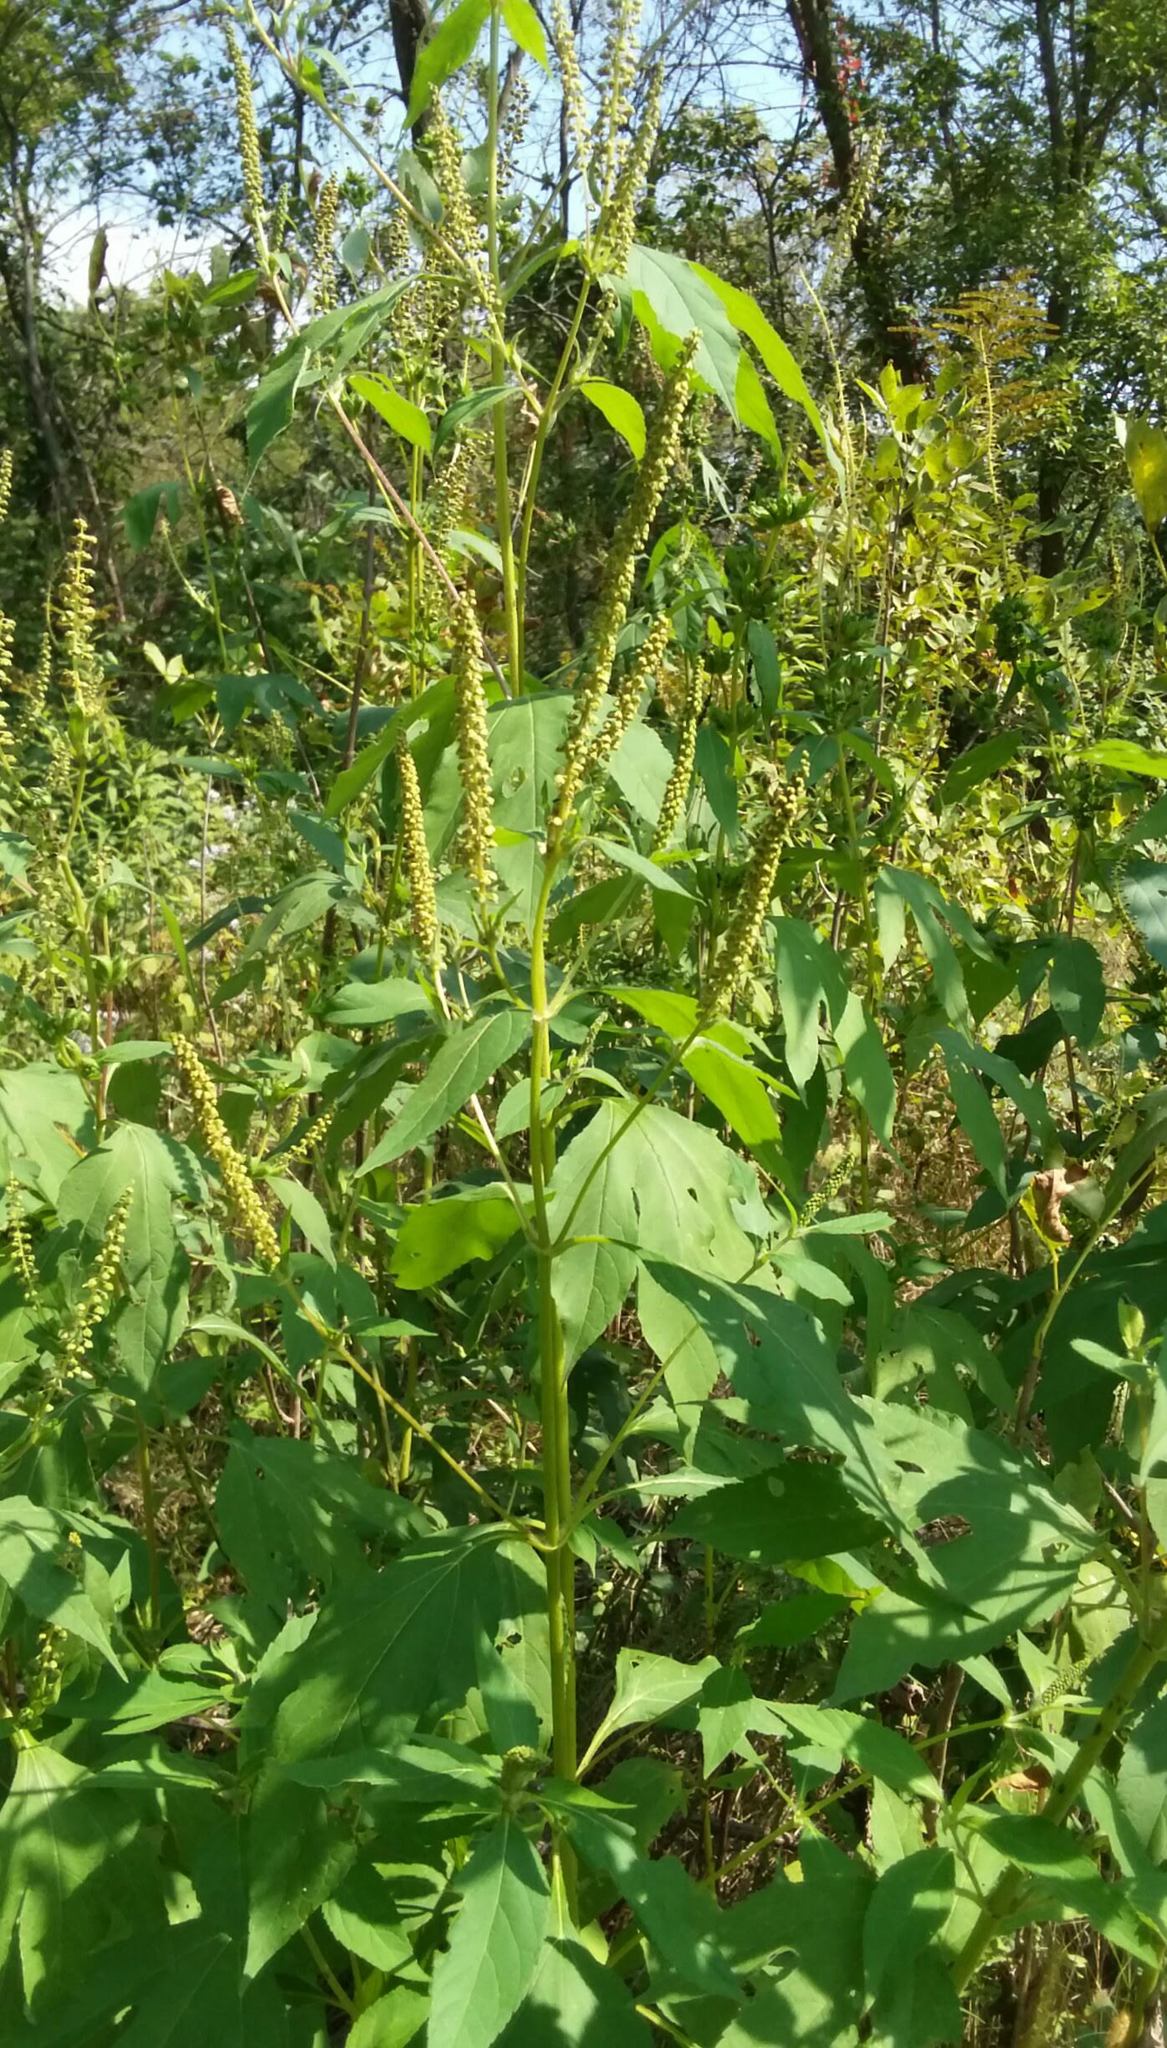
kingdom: Plantae
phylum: Tracheophyta
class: Magnoliopsida
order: Asterales
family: Asteraceae
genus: Ambrosia
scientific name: Ambrosia trifida
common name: Giant ragweed
